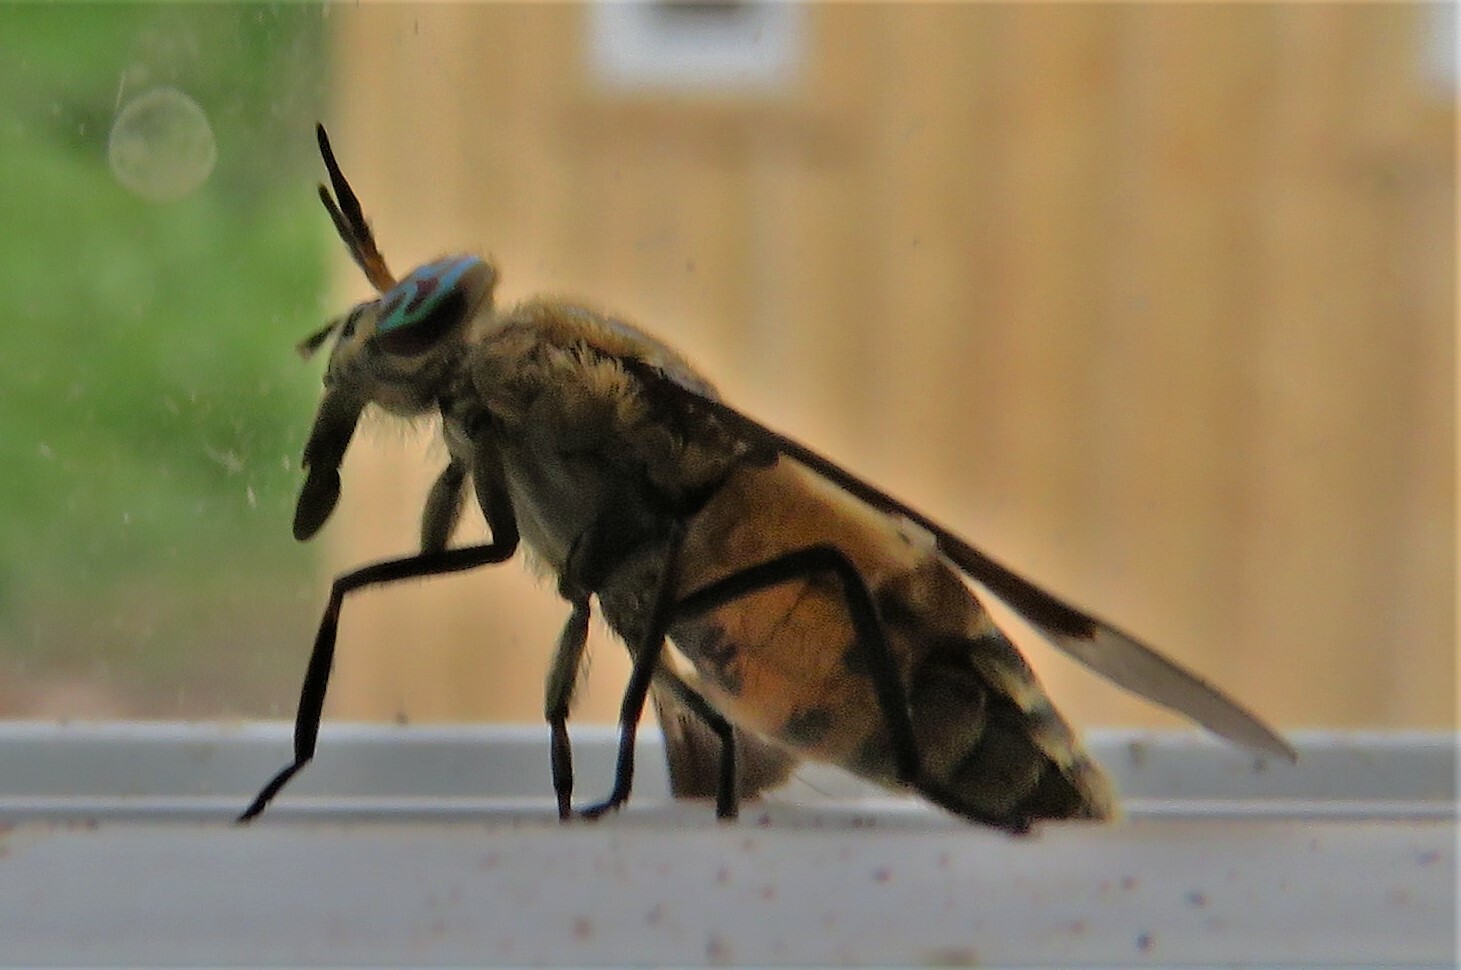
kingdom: Animalia
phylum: Arthropoda
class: Insecta
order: Diptera
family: Tabanidae
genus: Chrysops
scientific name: Chrysops excitans
